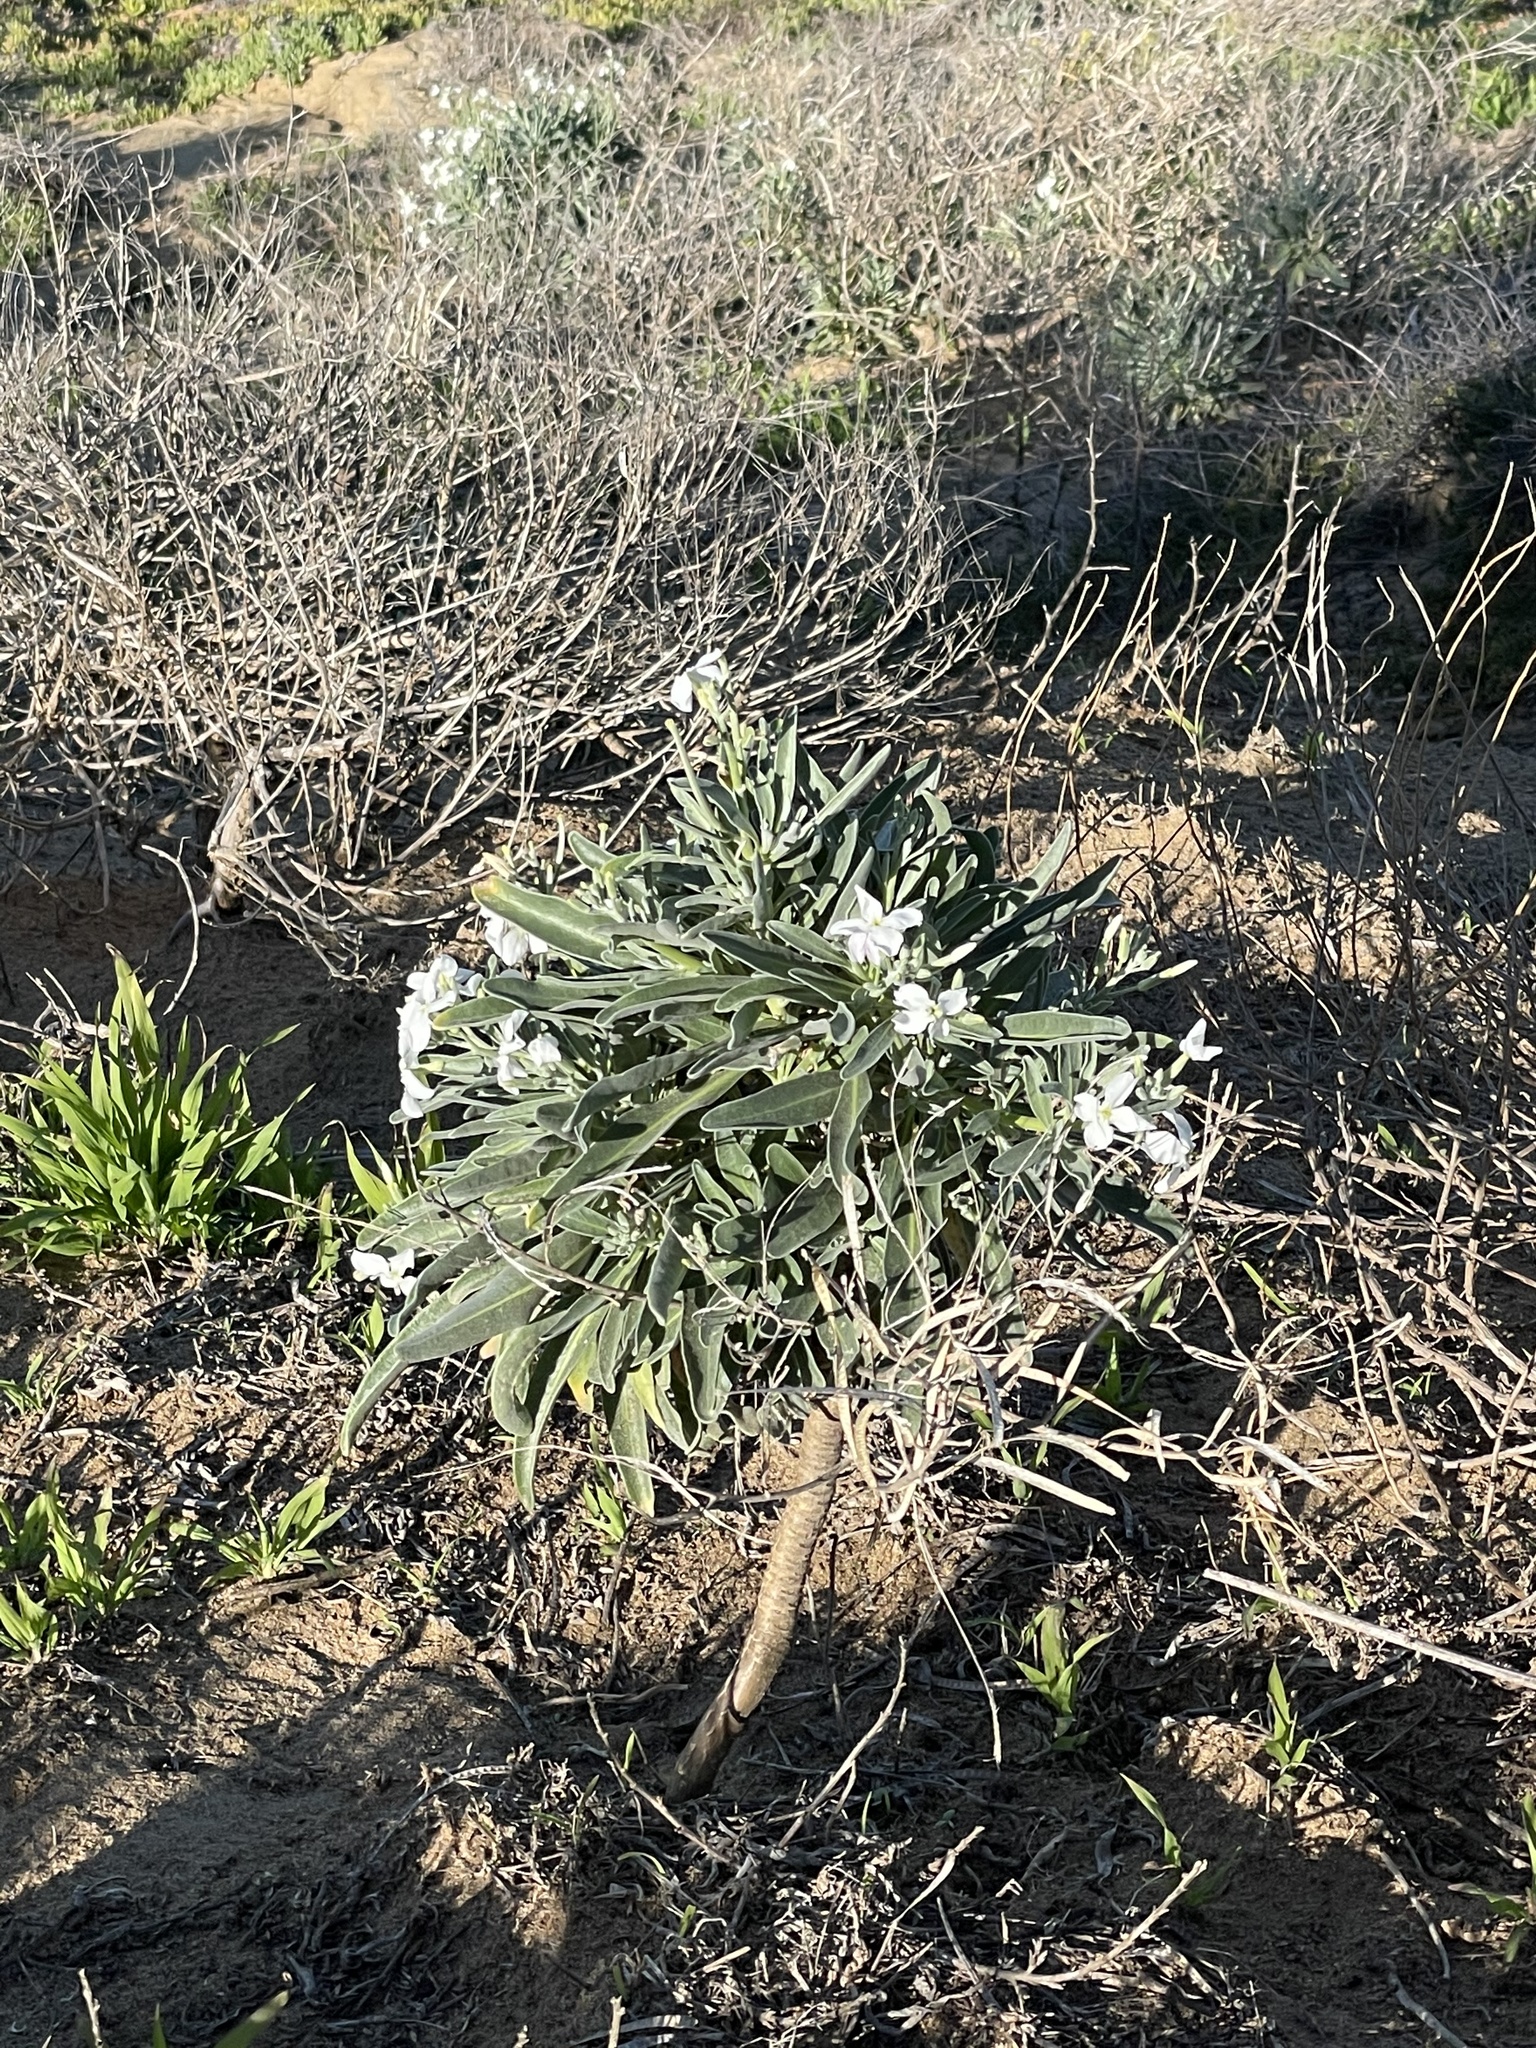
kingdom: Plantae
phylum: Tracheophyta
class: Magnoliopsida
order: Brassicales
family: Brassicaceae
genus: Matthiola
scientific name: Matthiola incana
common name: Hoary stock
